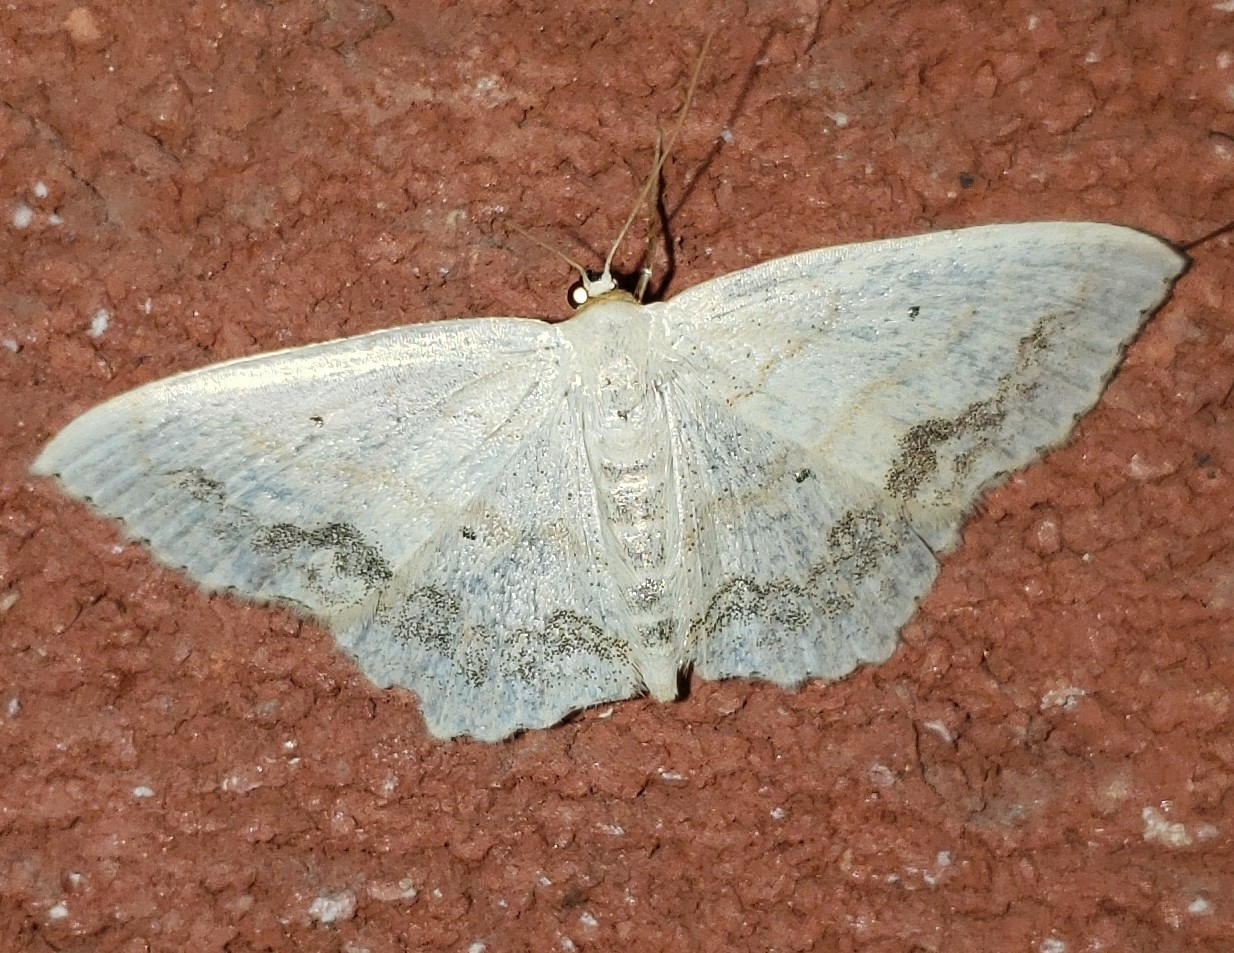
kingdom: Animalia
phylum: Arthropoda
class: Insecta
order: Lepidoptera
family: Geometridae
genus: Scopula
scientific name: Scopula limboundata
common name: Large lace border
